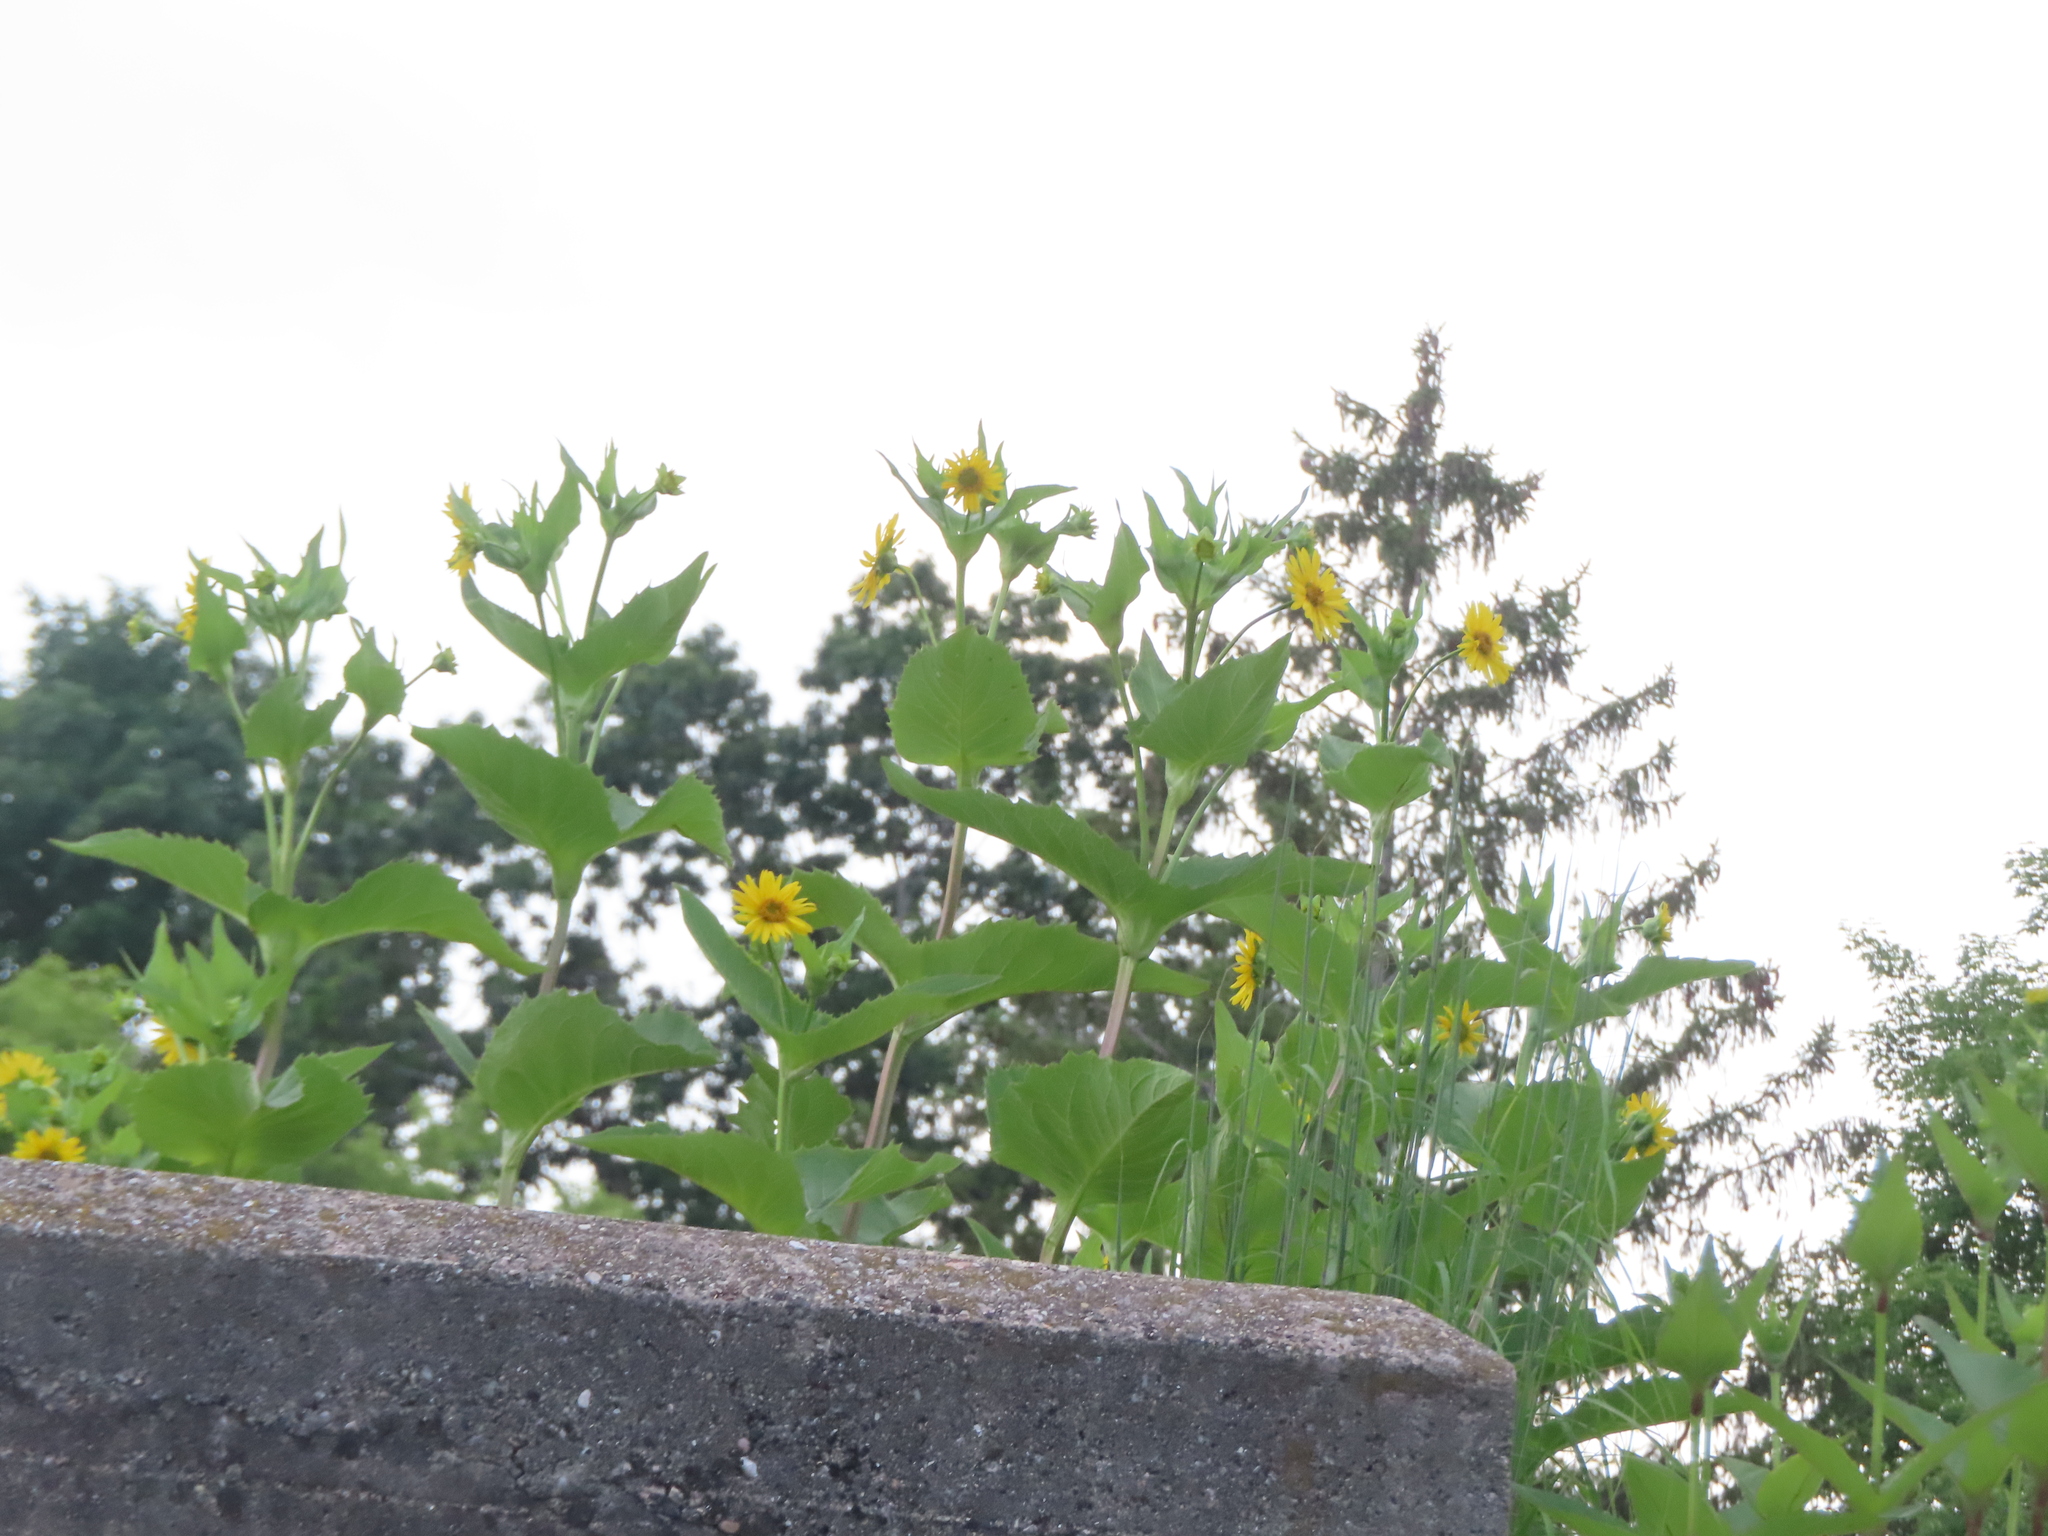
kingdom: Plantae
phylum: Tracheophyta
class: Magnoliopsida
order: Asterales
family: Asteraceae
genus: Silphium
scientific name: Silphium perfoliatum
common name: Cup-plant
